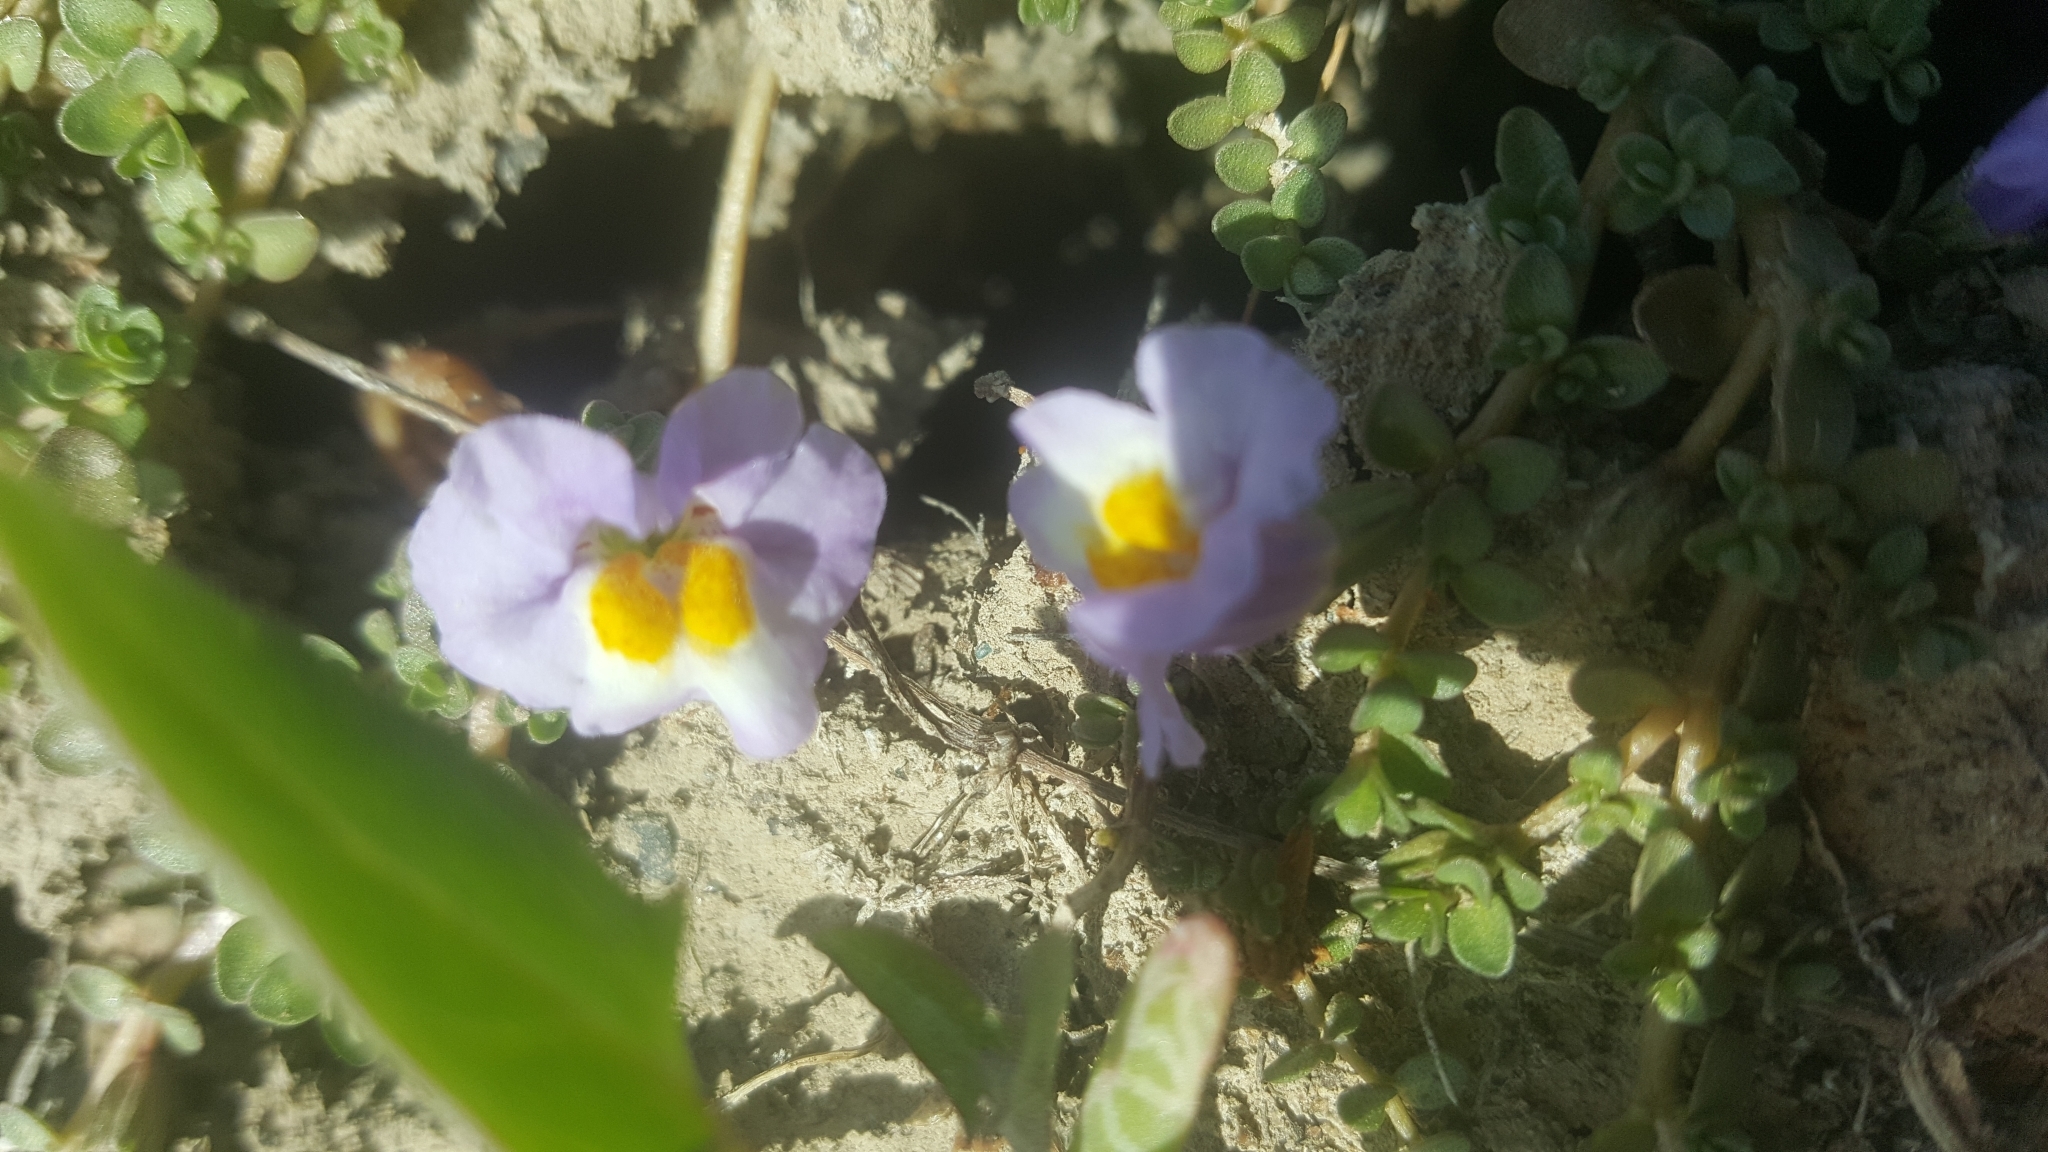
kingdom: Plantae
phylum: Tracheophyta
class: Magnoliopsida
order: Lamiales
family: Phrymaceae
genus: Thyridia
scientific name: Thyridia repens
